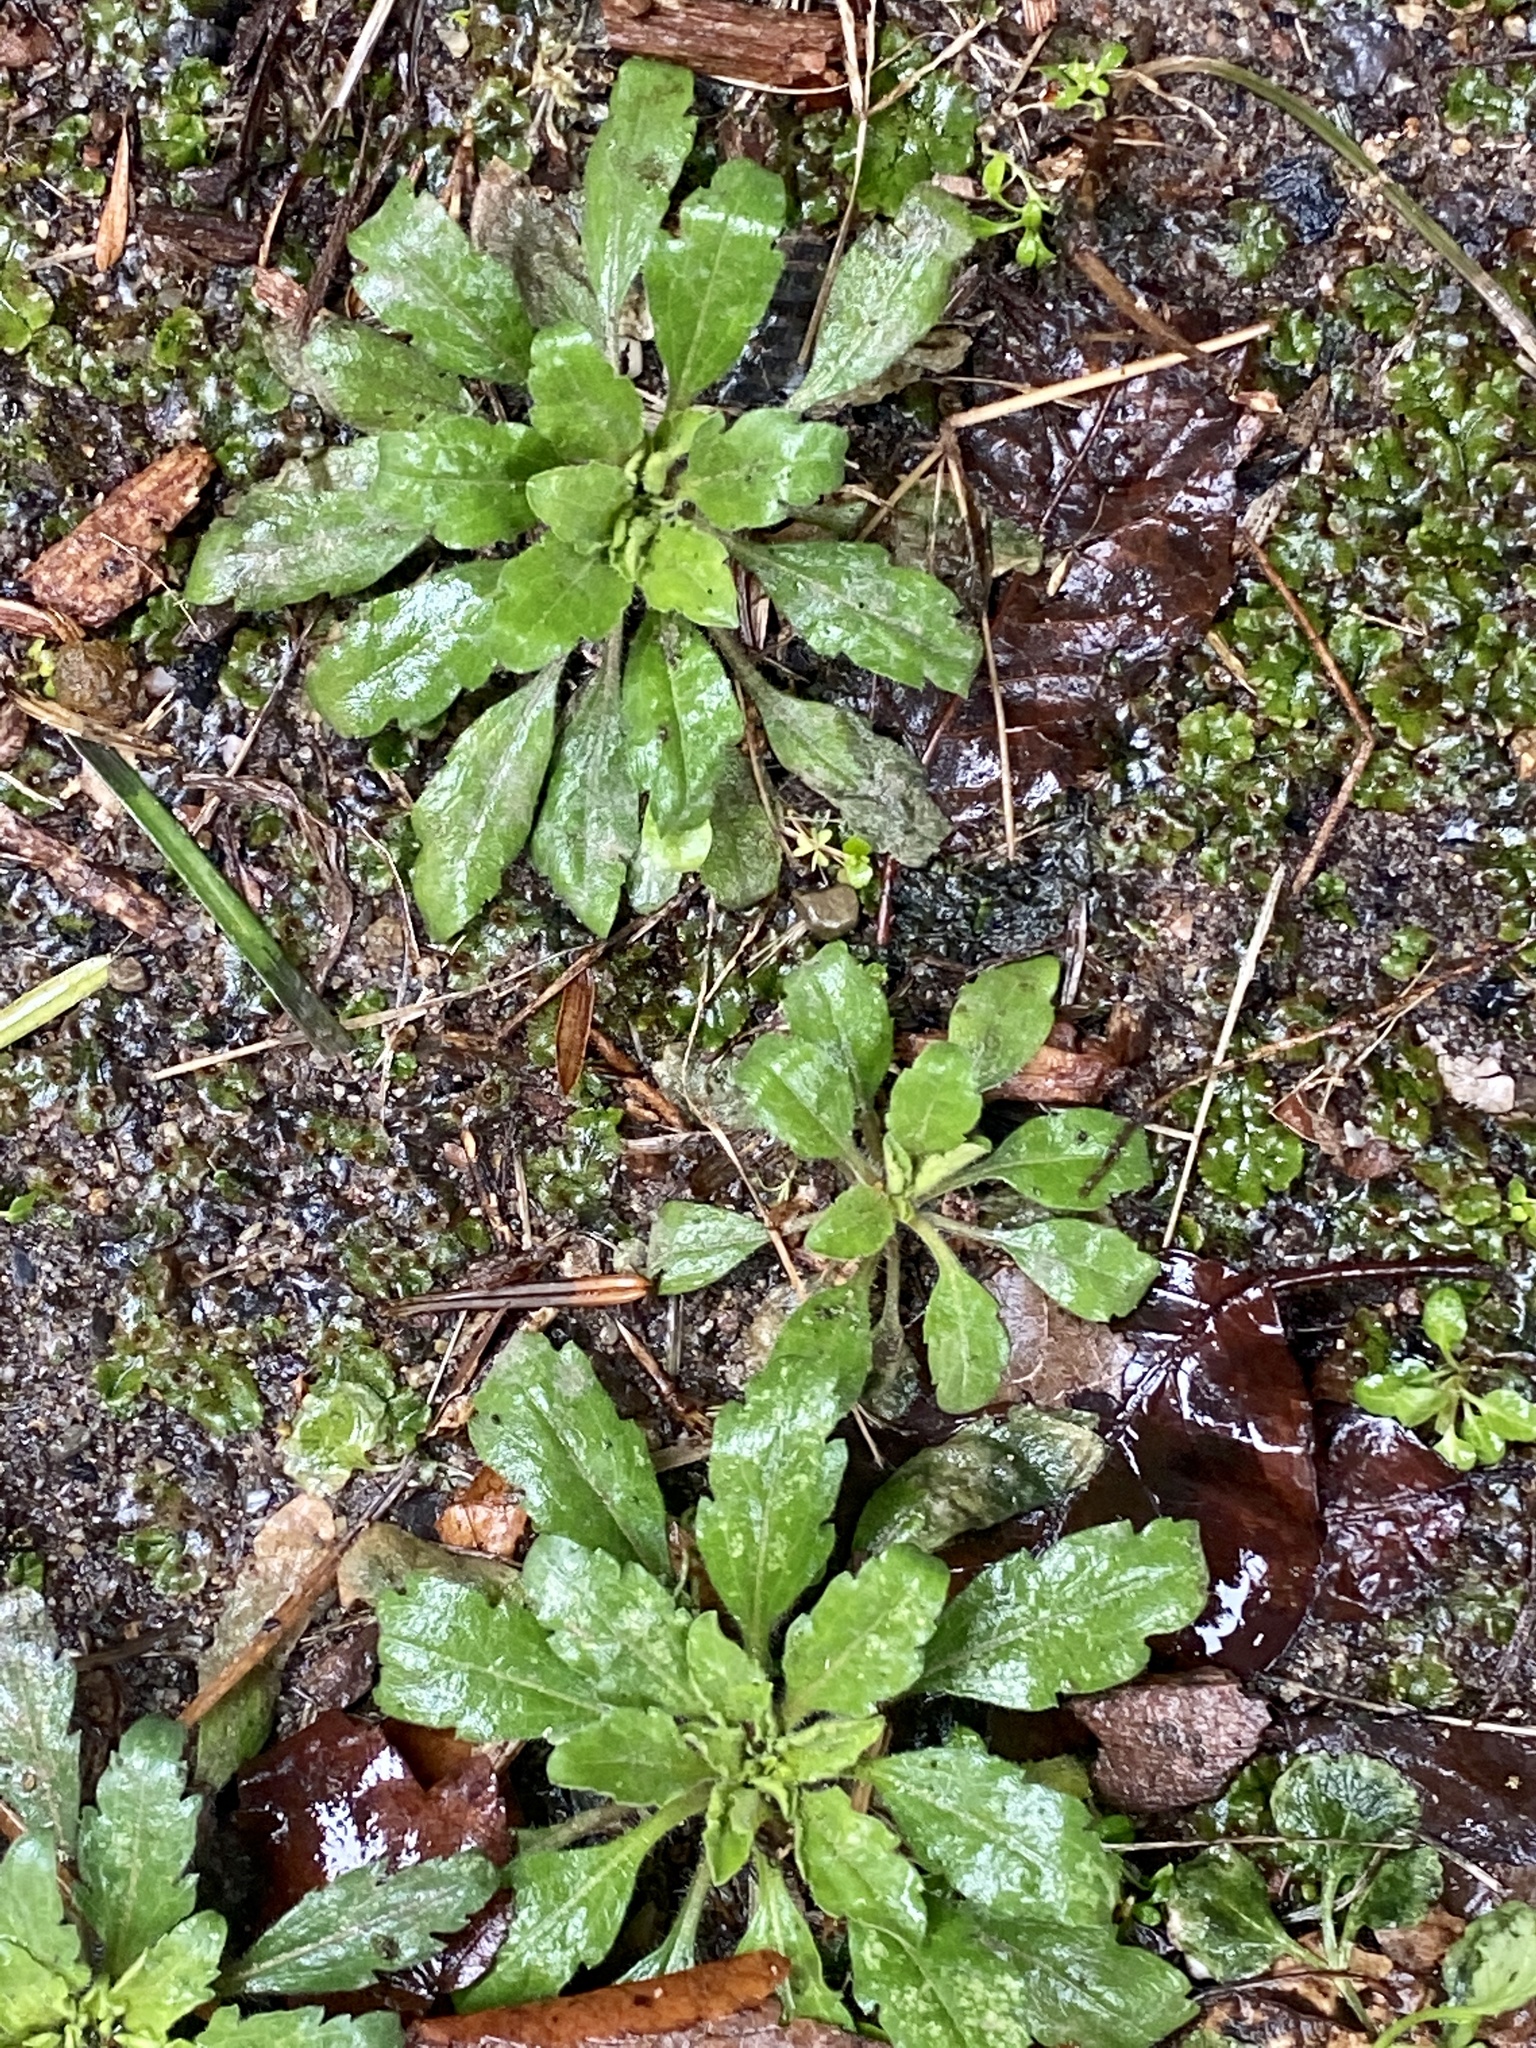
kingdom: Plantae
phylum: Tracheophyta
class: Magnoliopsida
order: Asterales
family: Asteraceae
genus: Erigeron
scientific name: Erigeron canadensis
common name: Canadian fleabane
